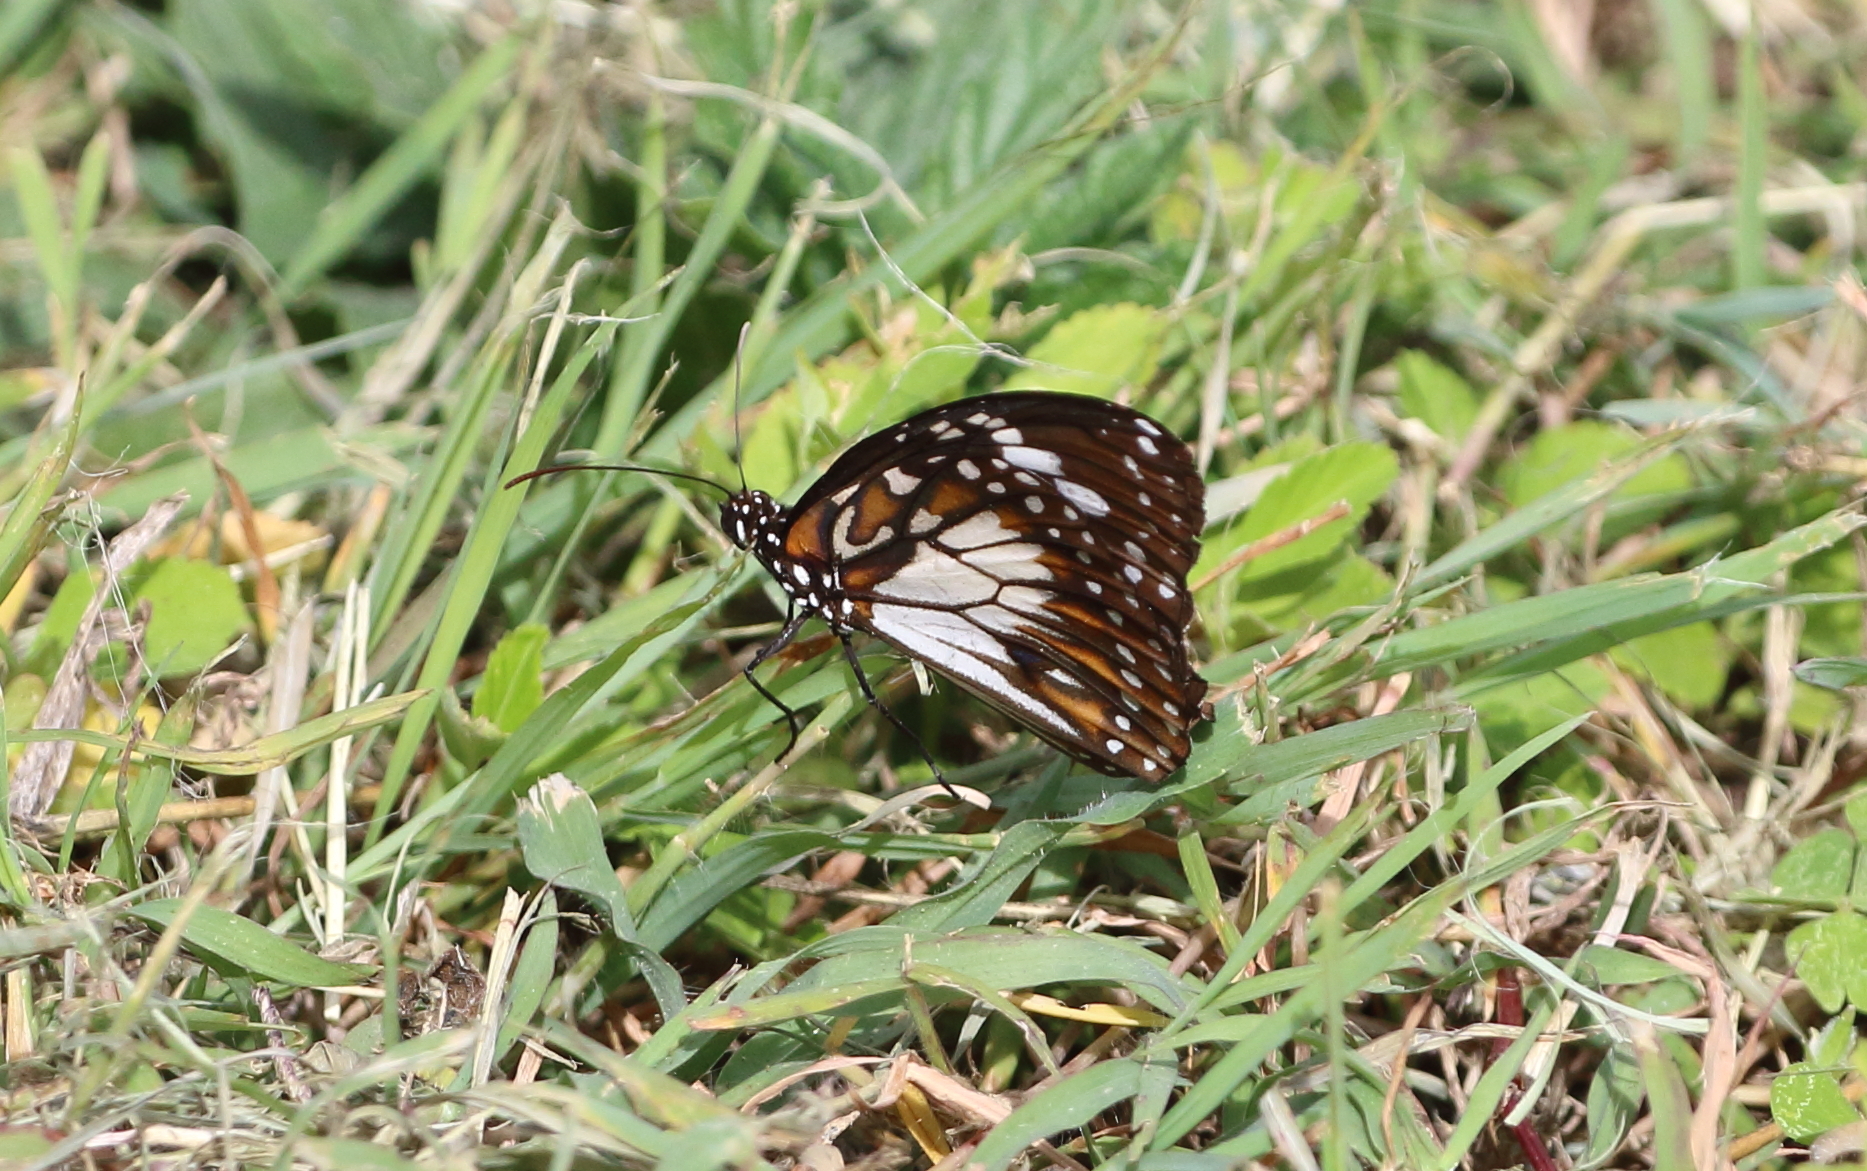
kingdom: Animalia
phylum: Arthropoda
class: Insecta
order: Lepidoptera
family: Nymphalidae
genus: Danaus
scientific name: Danaus affinis
